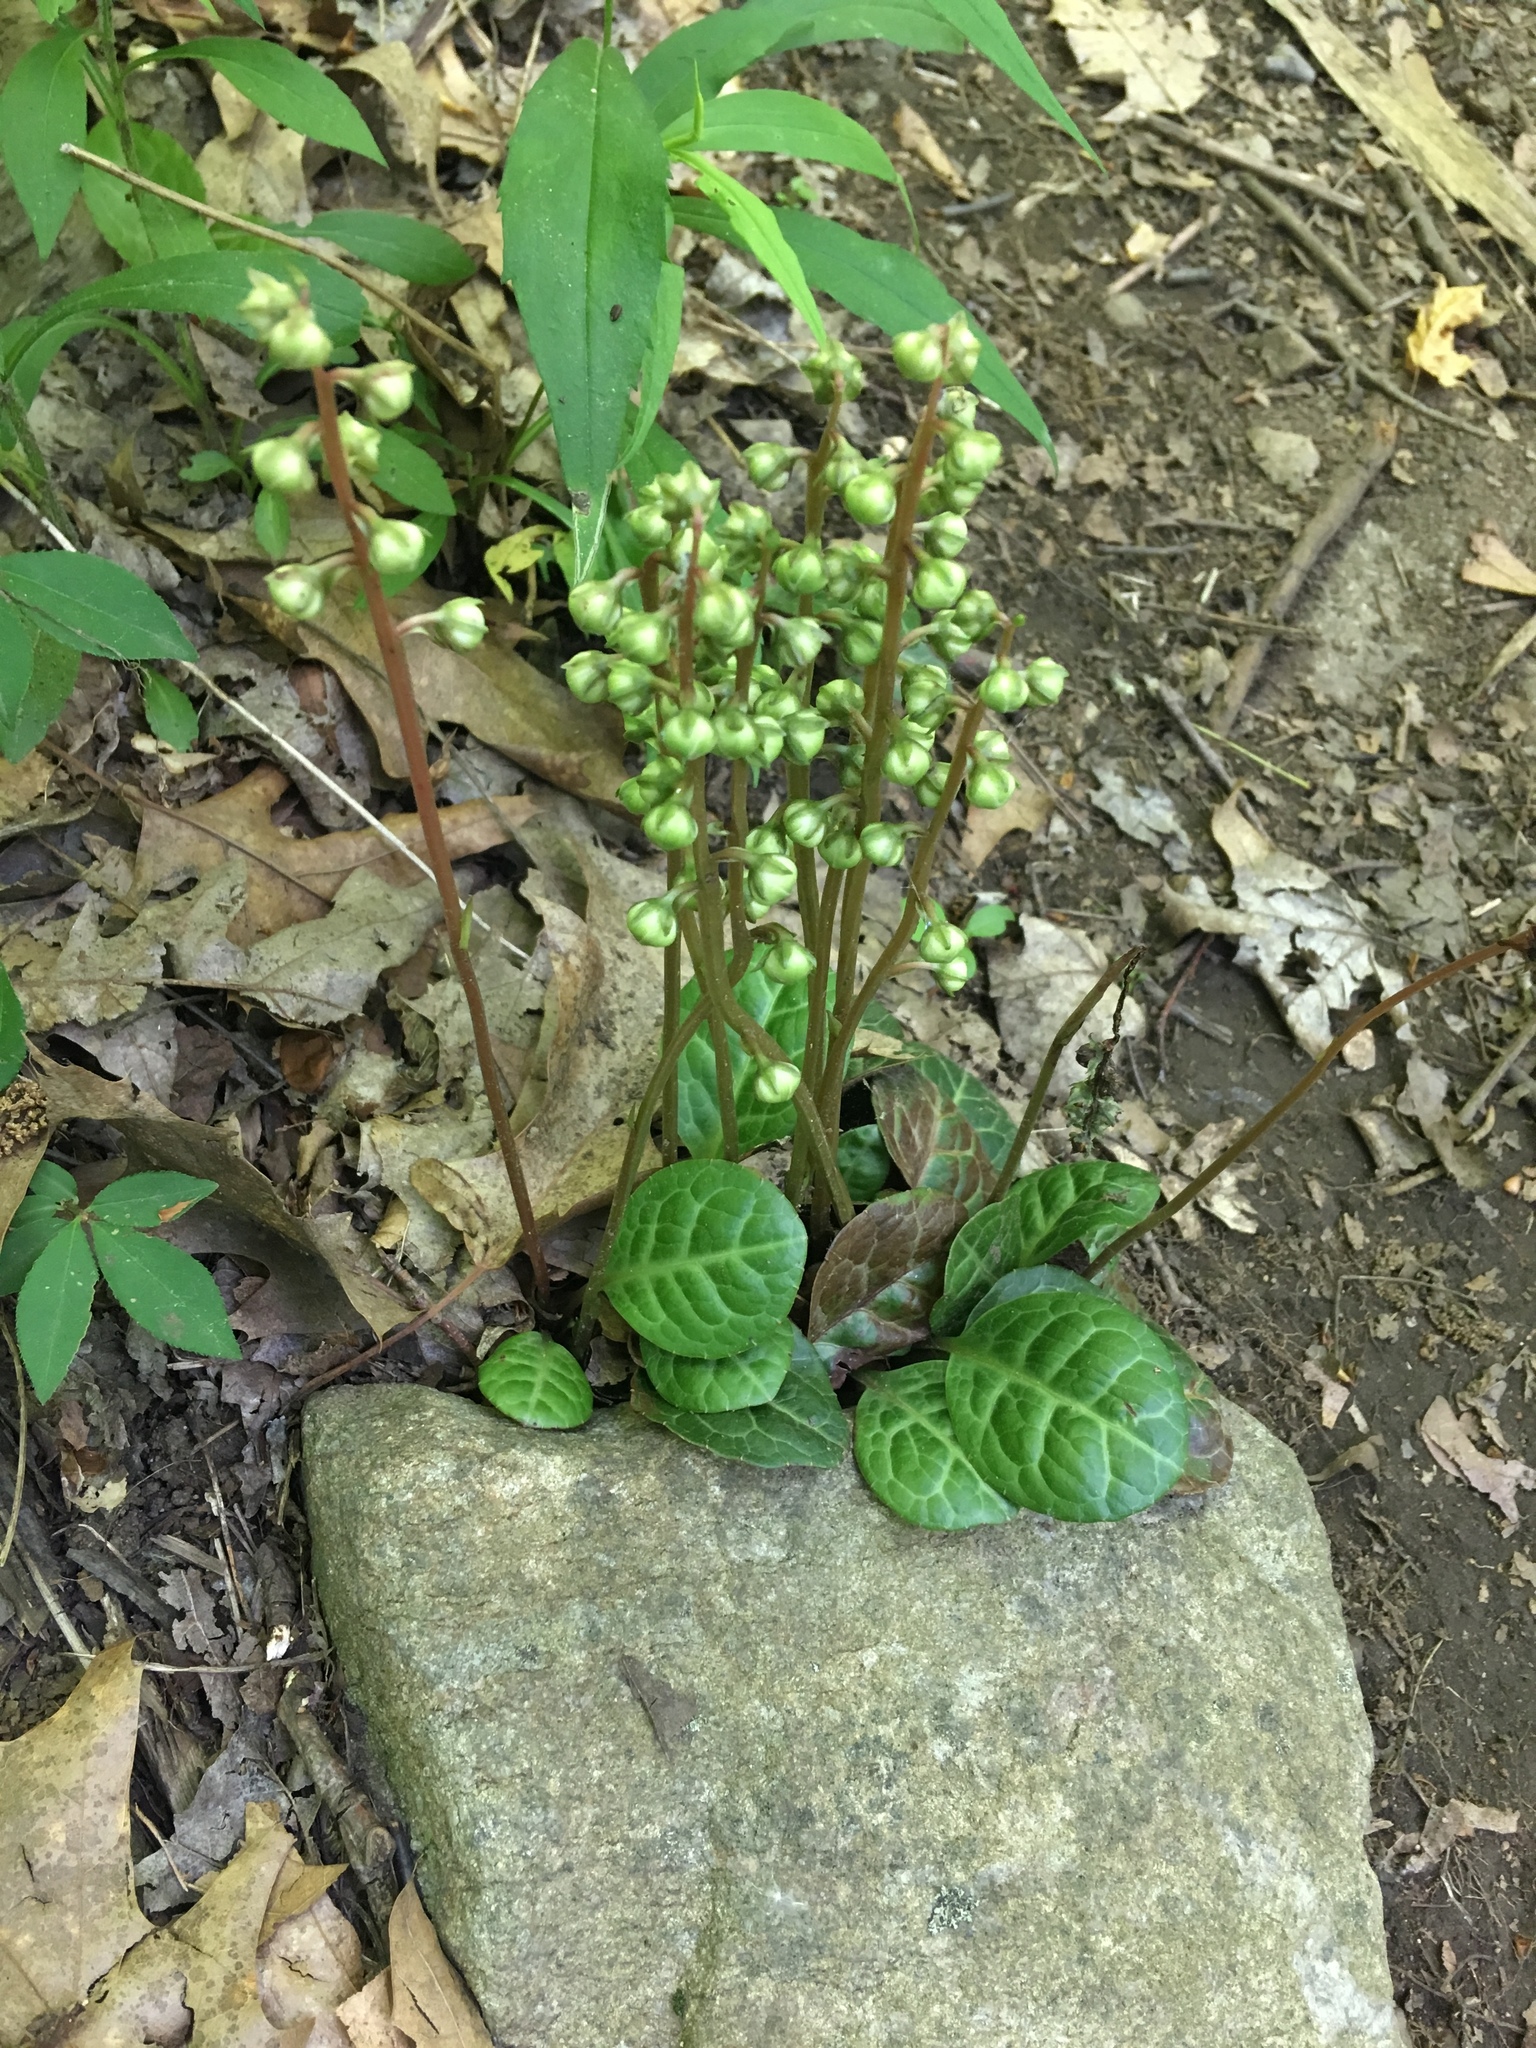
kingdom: Plantae
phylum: Tracheophyta
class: Magnoliopsida
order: Ericales
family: Ericaceae
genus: Pyrola
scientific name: Pyrola americana
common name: American wintergreen
